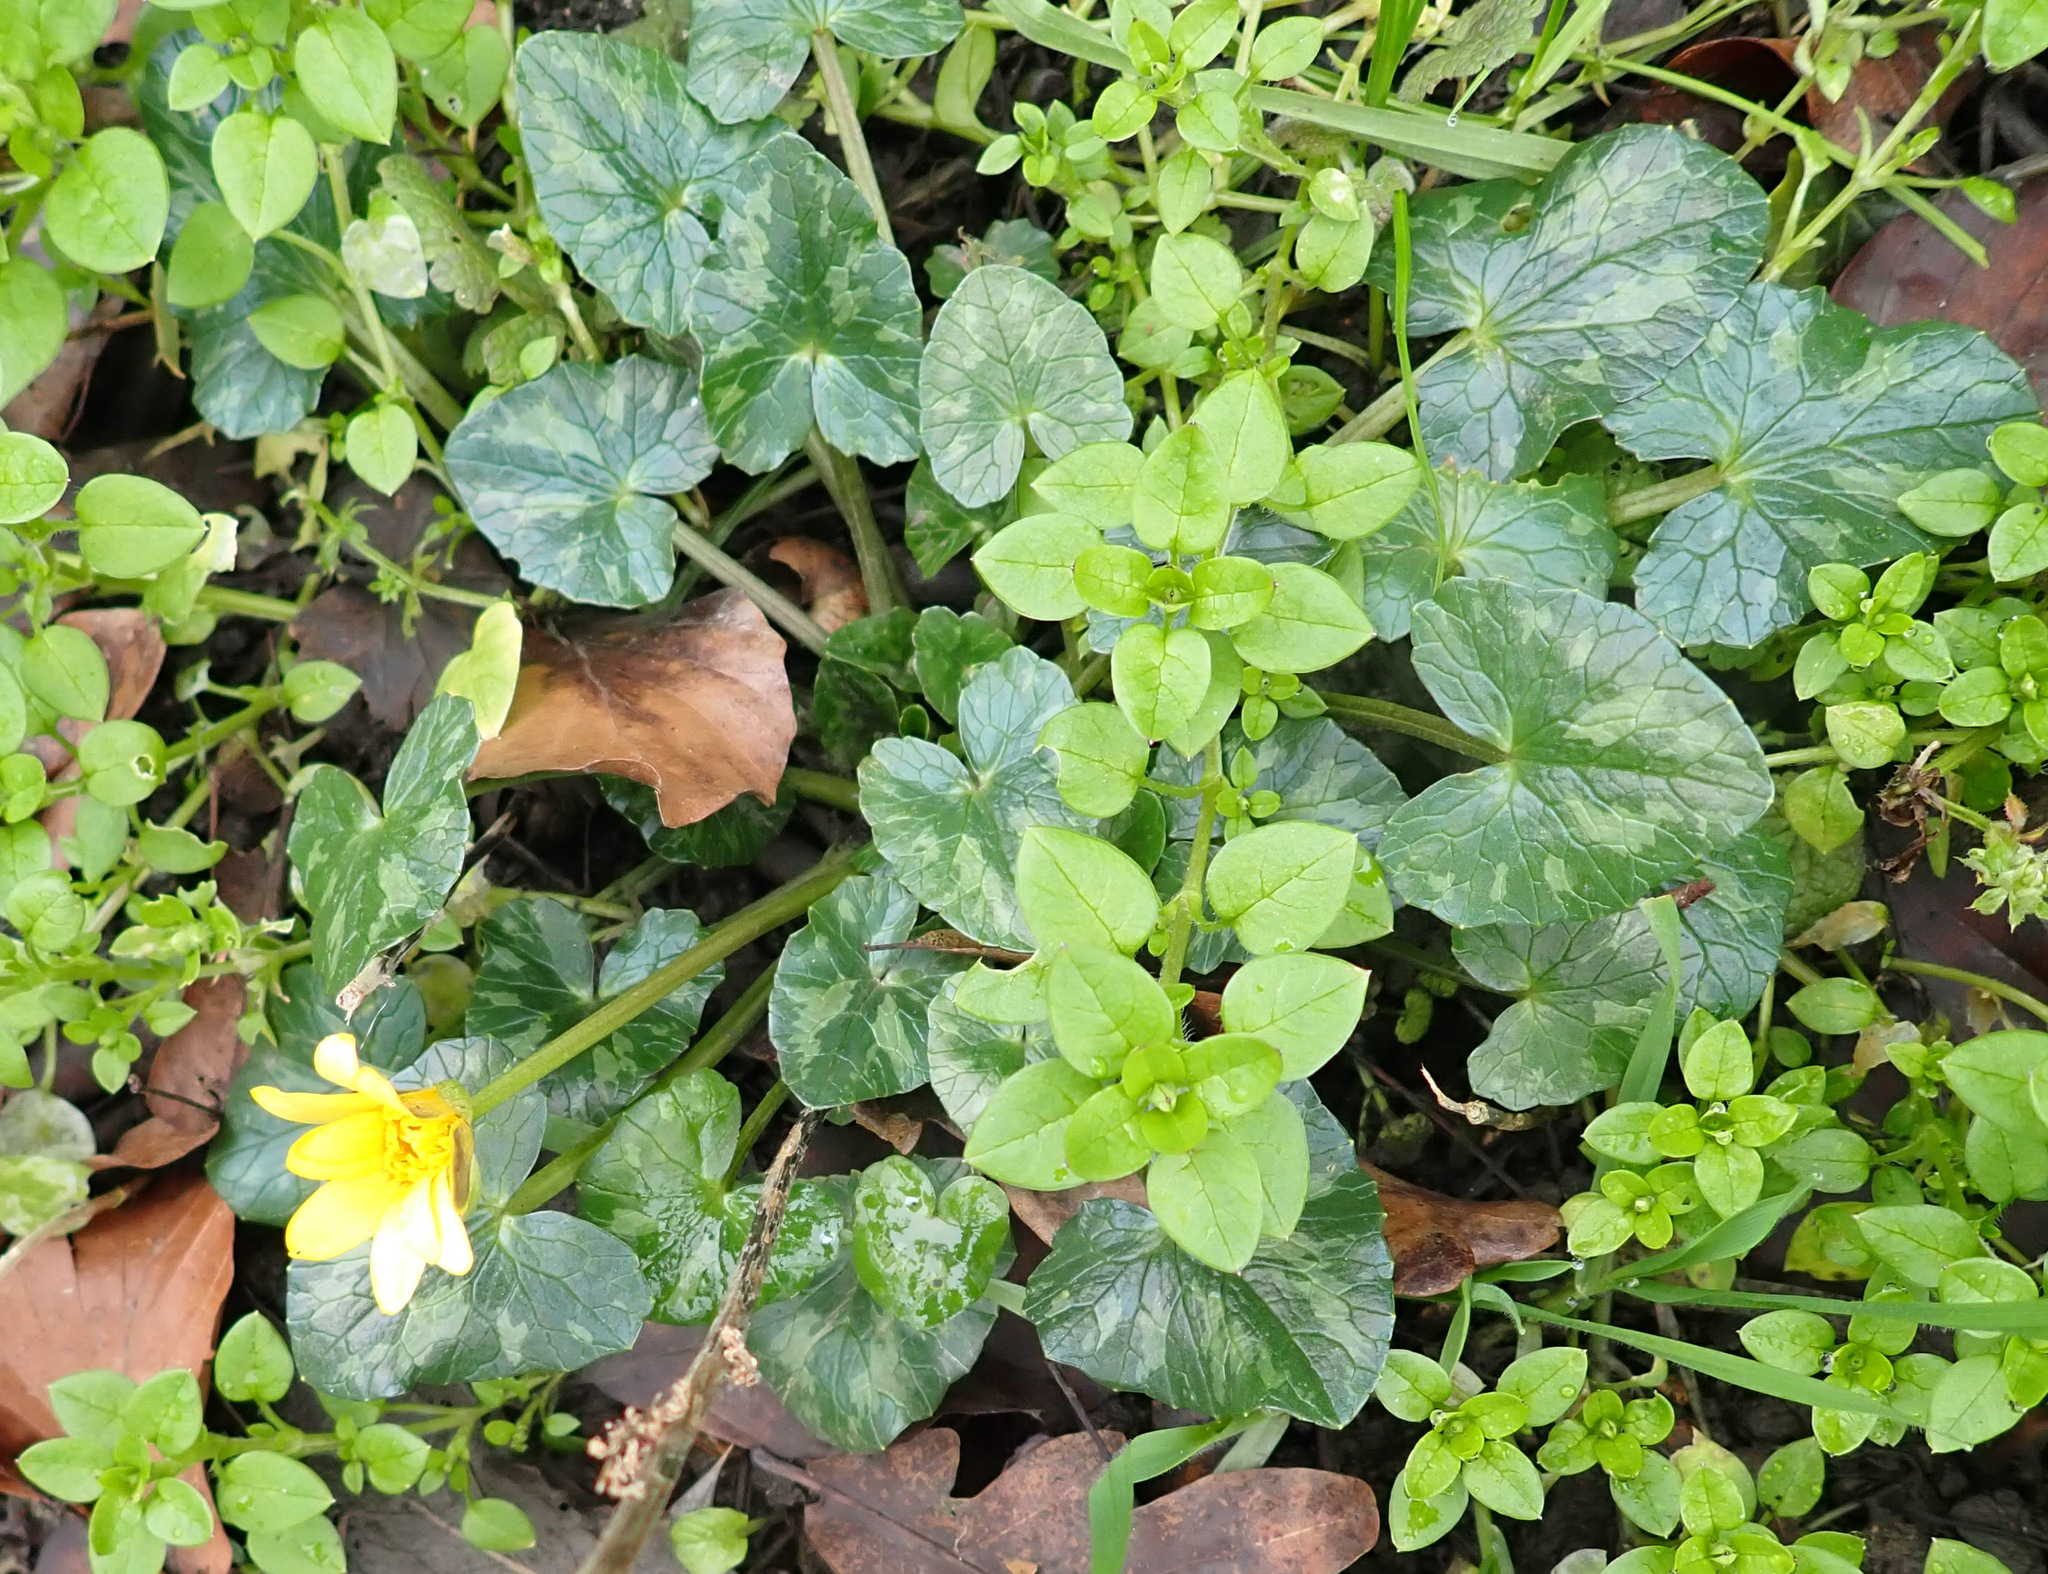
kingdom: Plantae
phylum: Tracheophyta
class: Magnoliopsida
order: Ranunculales
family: Ranunculaceae
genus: Ficaria
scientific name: Ficaria verna
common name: Lesser celandine
